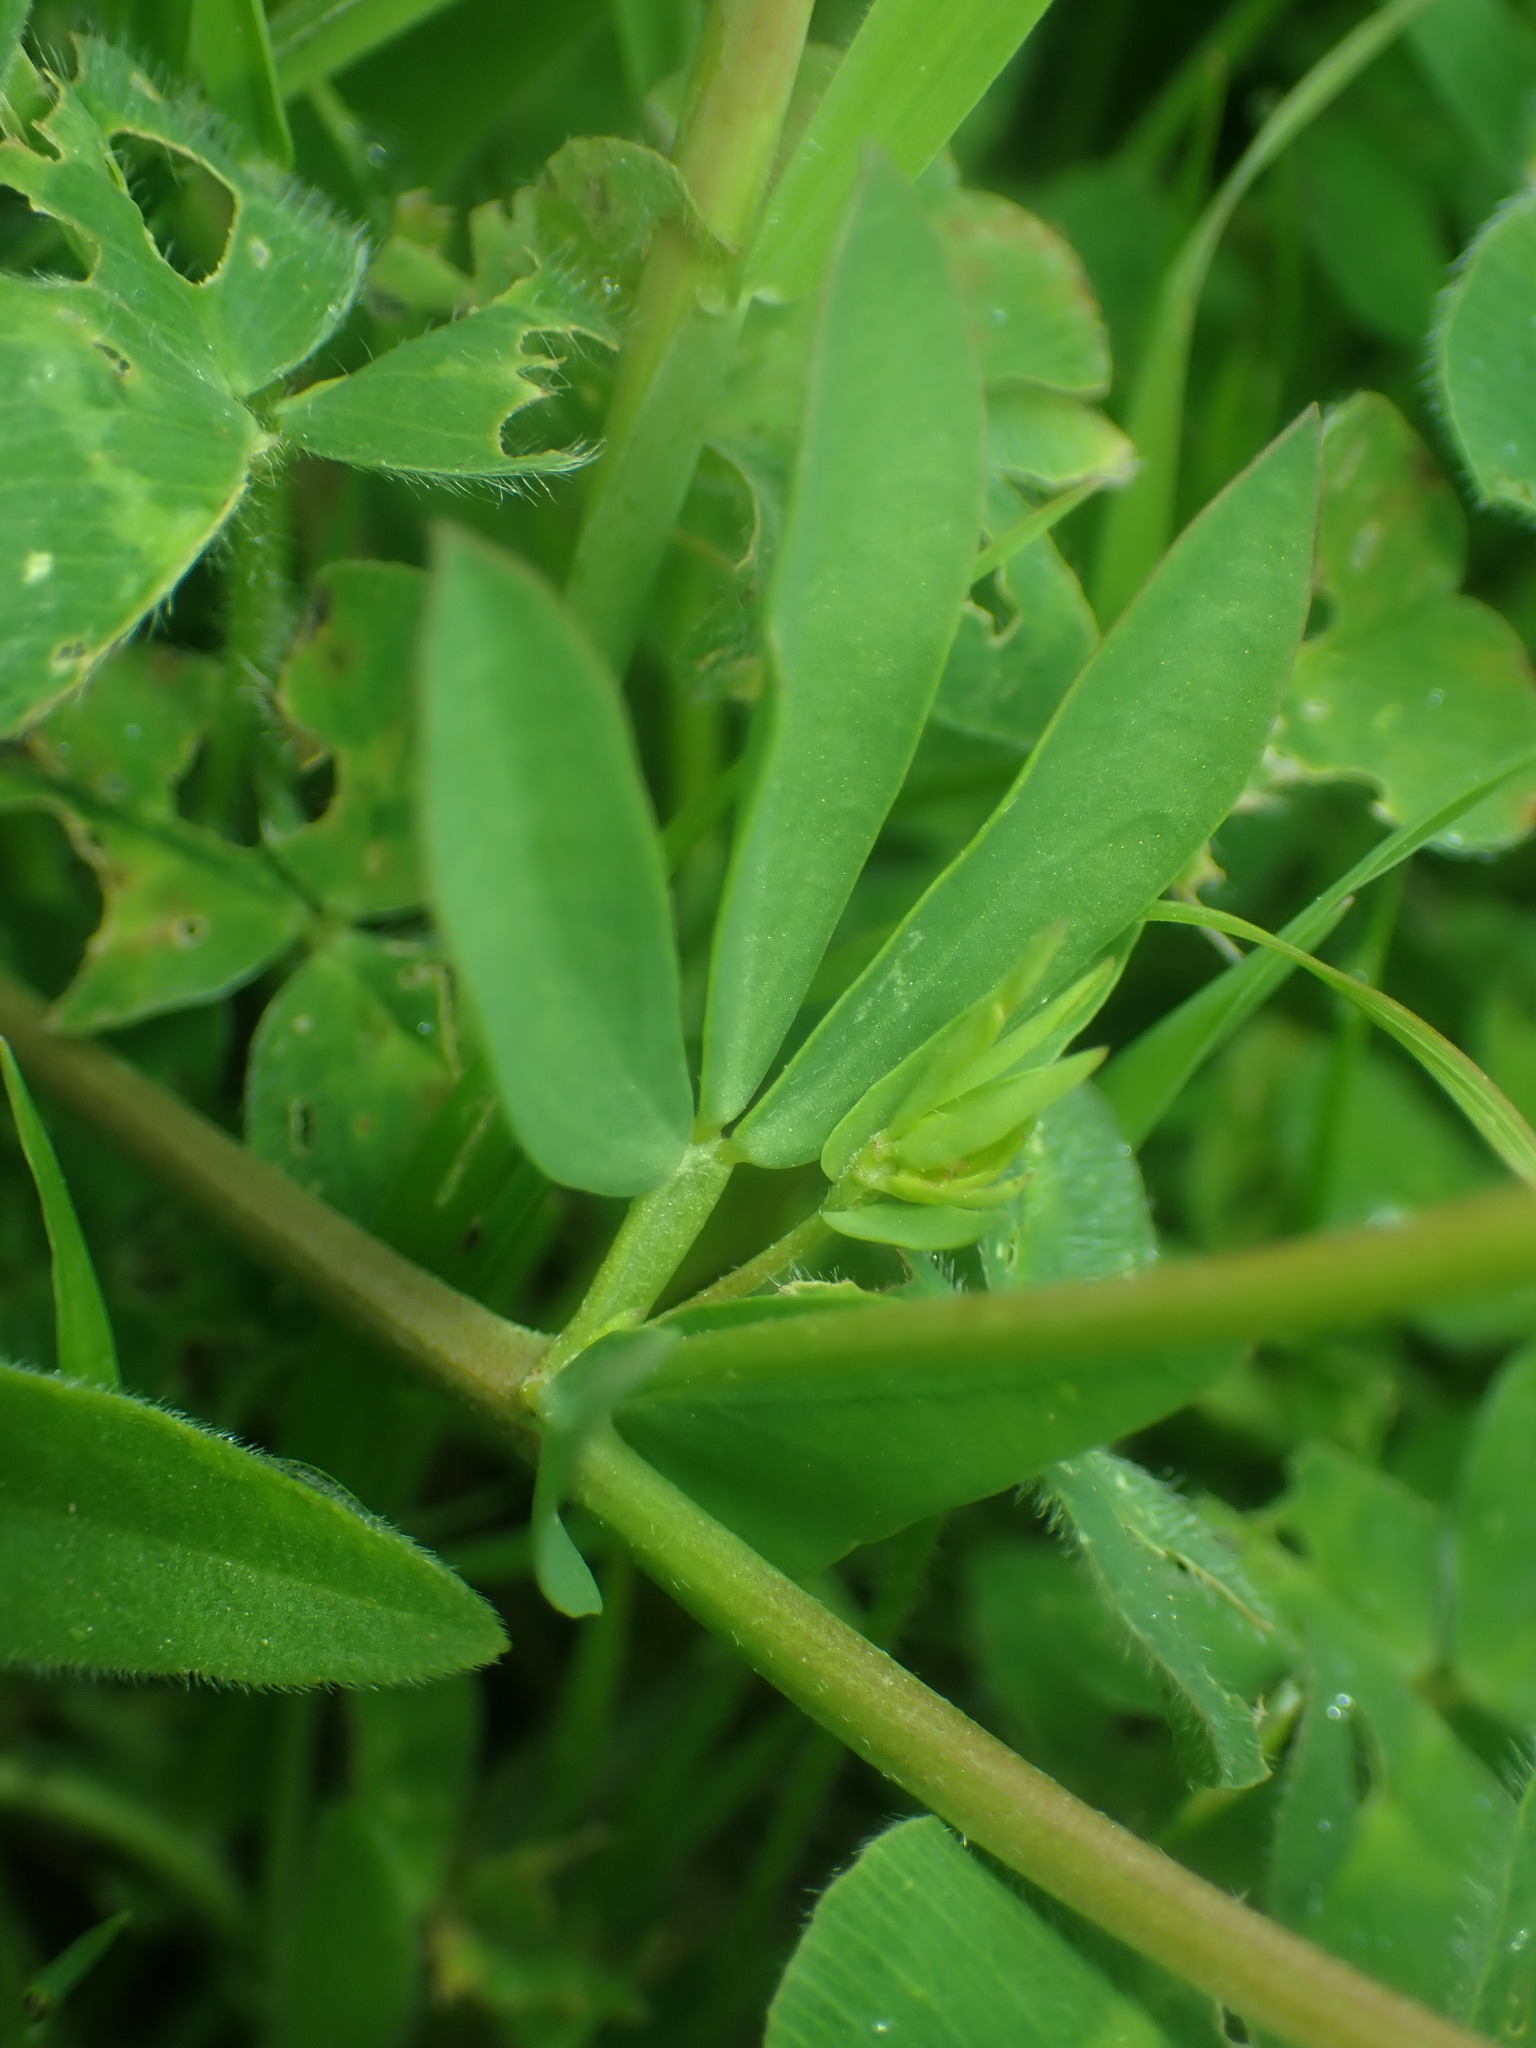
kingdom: Plantae
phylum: Tracheophyta
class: Magnoliopsida
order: Fabales
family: Fabaceae
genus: Lotus
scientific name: Lotus corniculatus
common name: Common bird's-foot-trefoil
